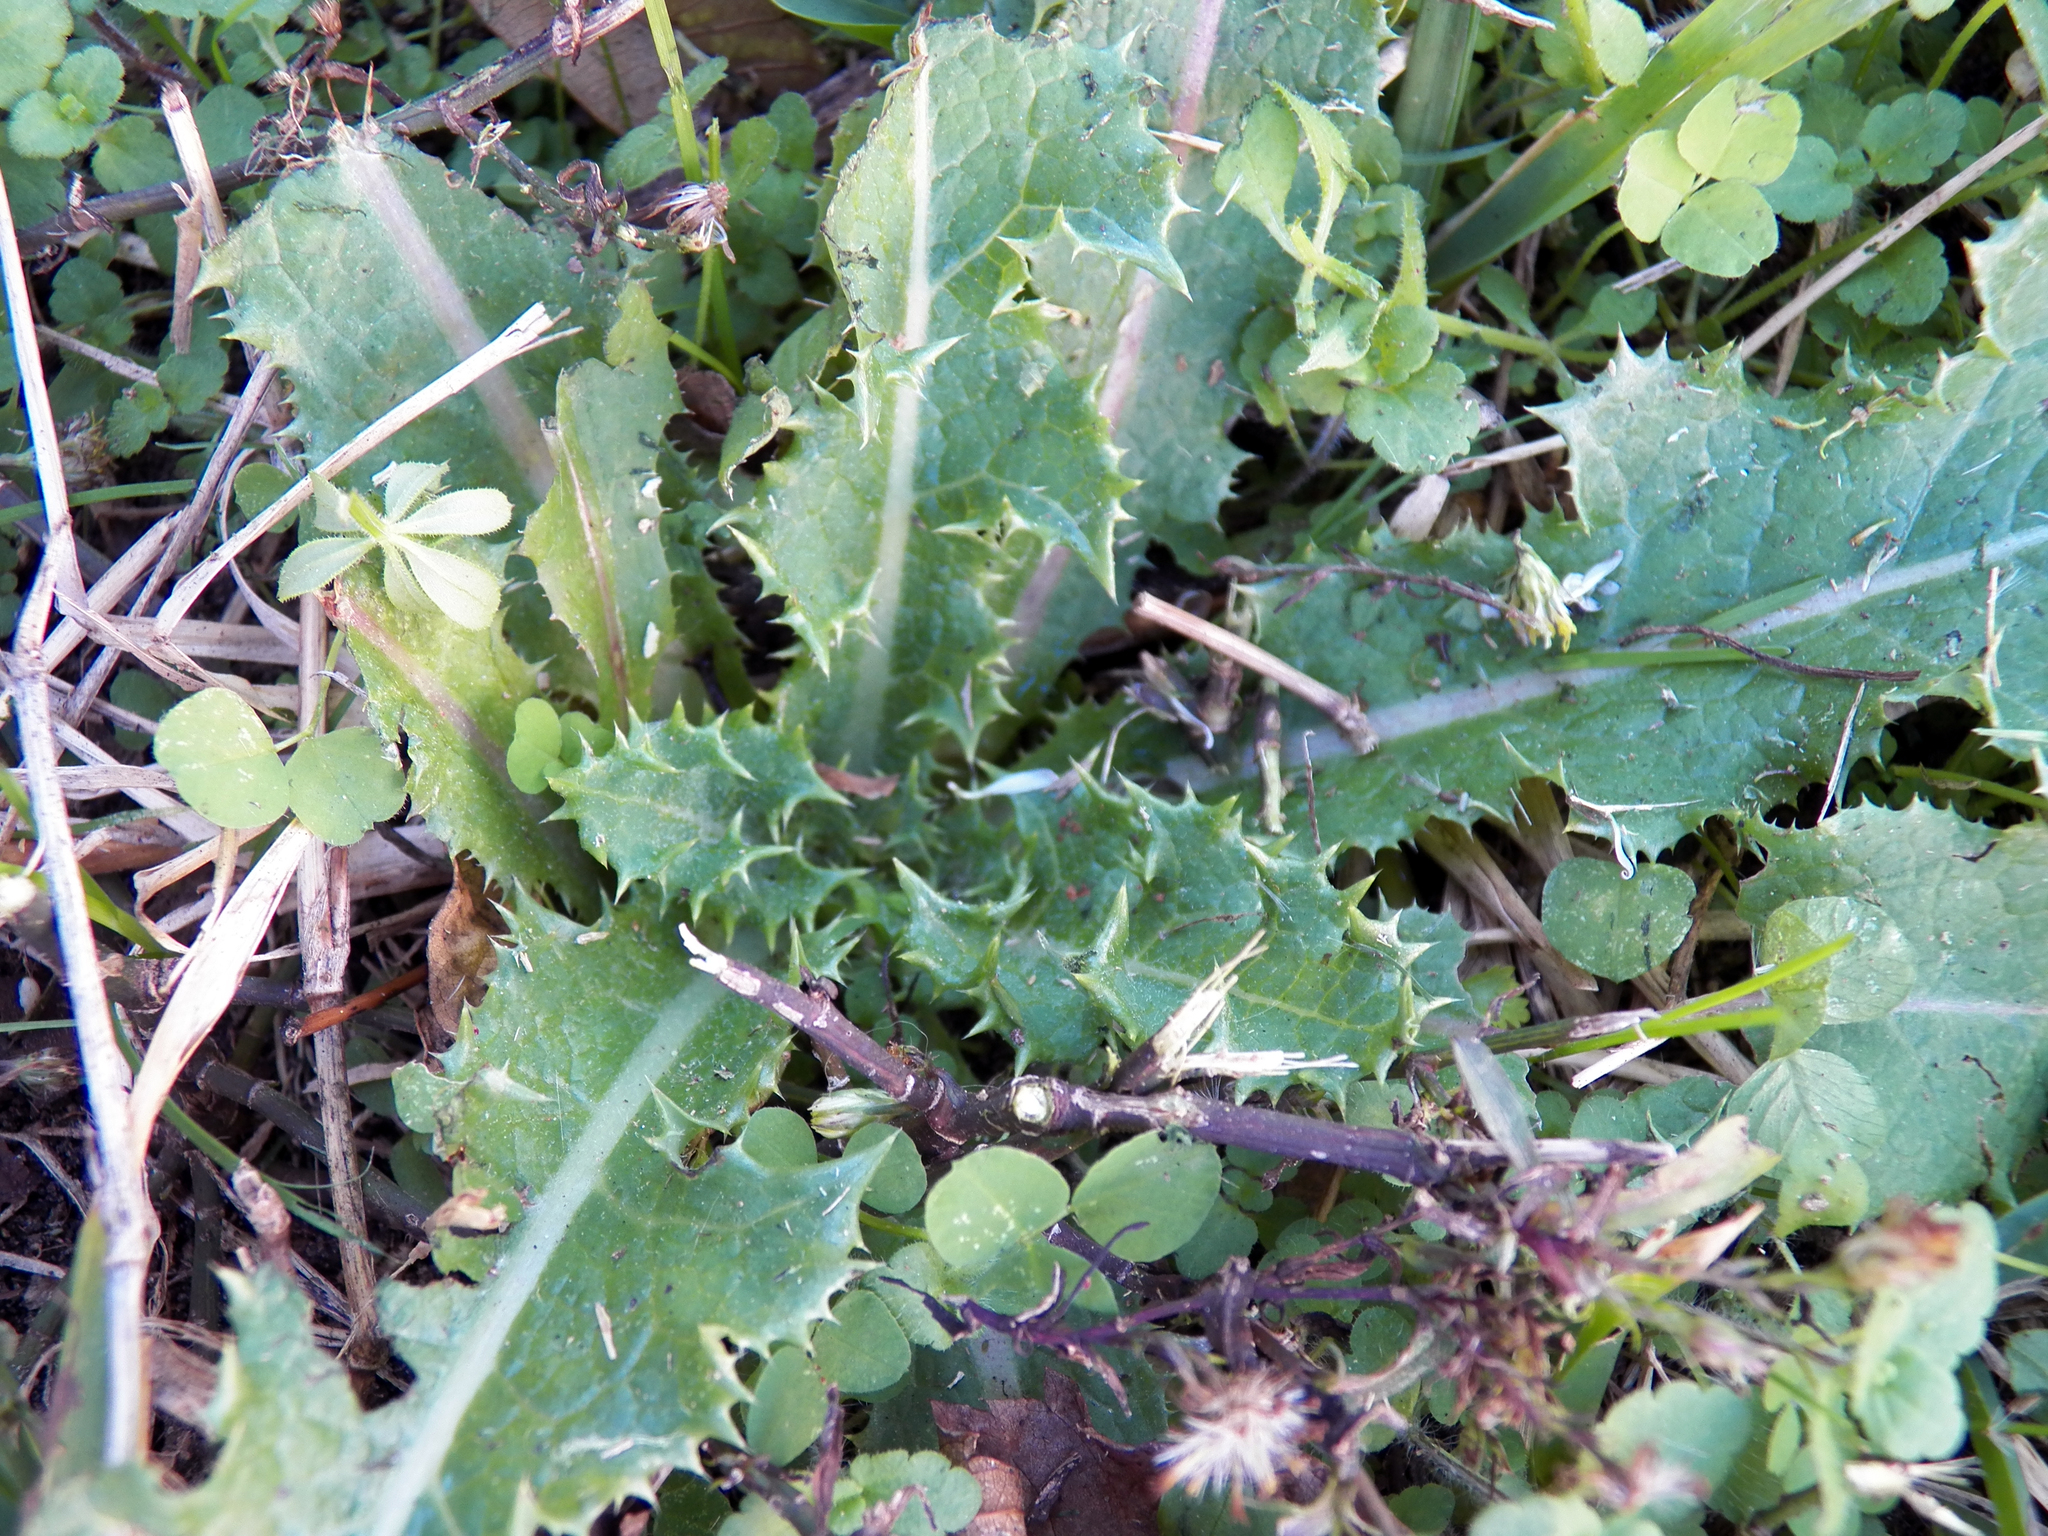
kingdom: Plantae
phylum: Tracheophyta
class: Magnoliopsida
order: Asterales
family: Asteraceae
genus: Sonchus
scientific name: Sonchus asper
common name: Prickly sow-thistle
